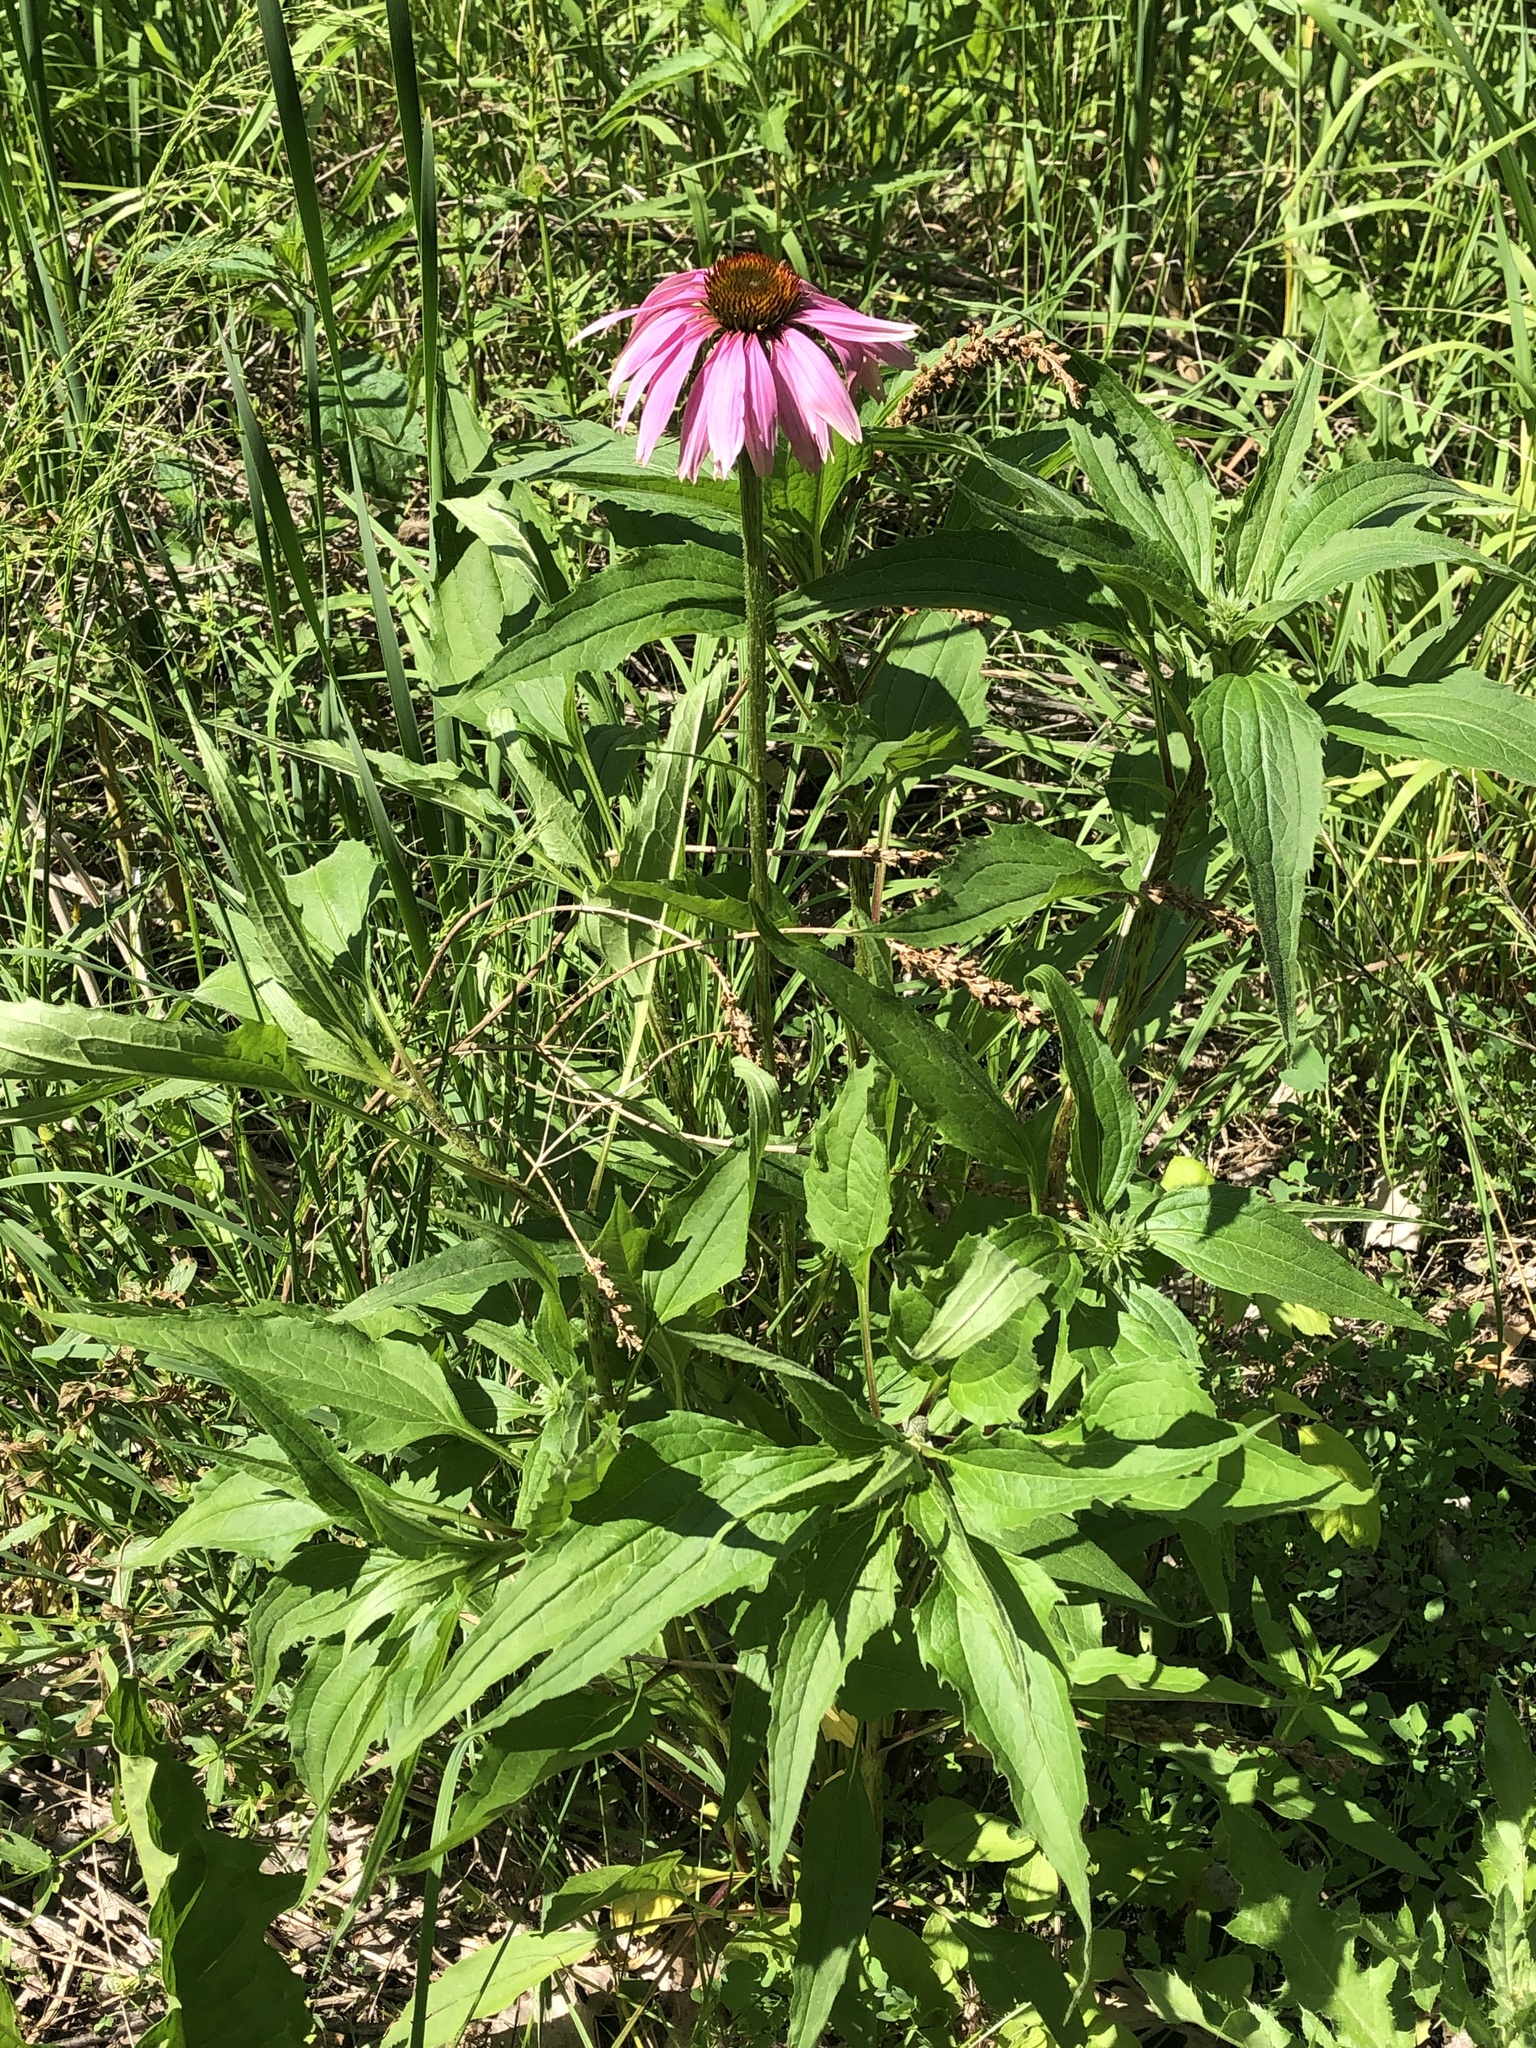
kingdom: Plantae
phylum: Tracheophyta
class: Magnoliopsida
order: Asterales
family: Asteraceae
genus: Echinacea
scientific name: Echinacea purpurea
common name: Broad-leaved purple coneflower
